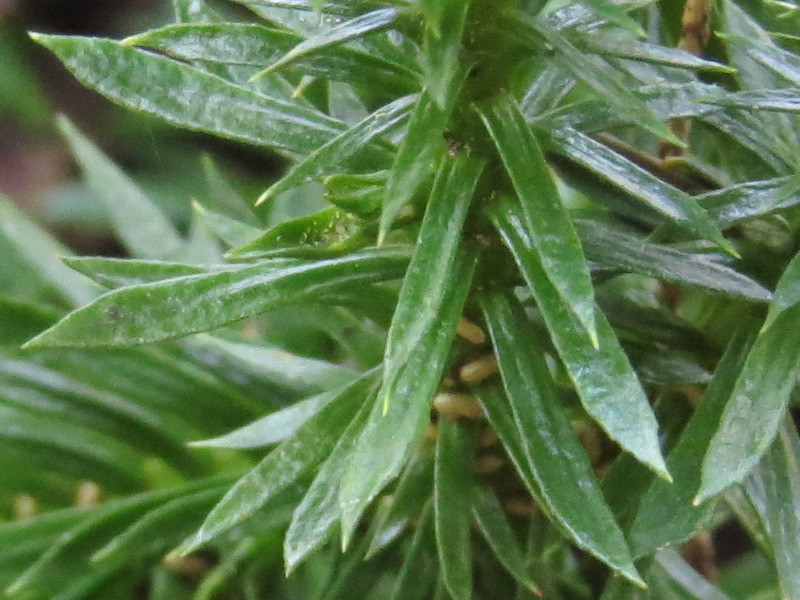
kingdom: Plantae
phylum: Tracheophyta
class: Lycopodiopsida
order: Lycopodiales
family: Lycopodiaceae
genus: Huperzia
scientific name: Huperzia lucidula
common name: Shining clubmoss
